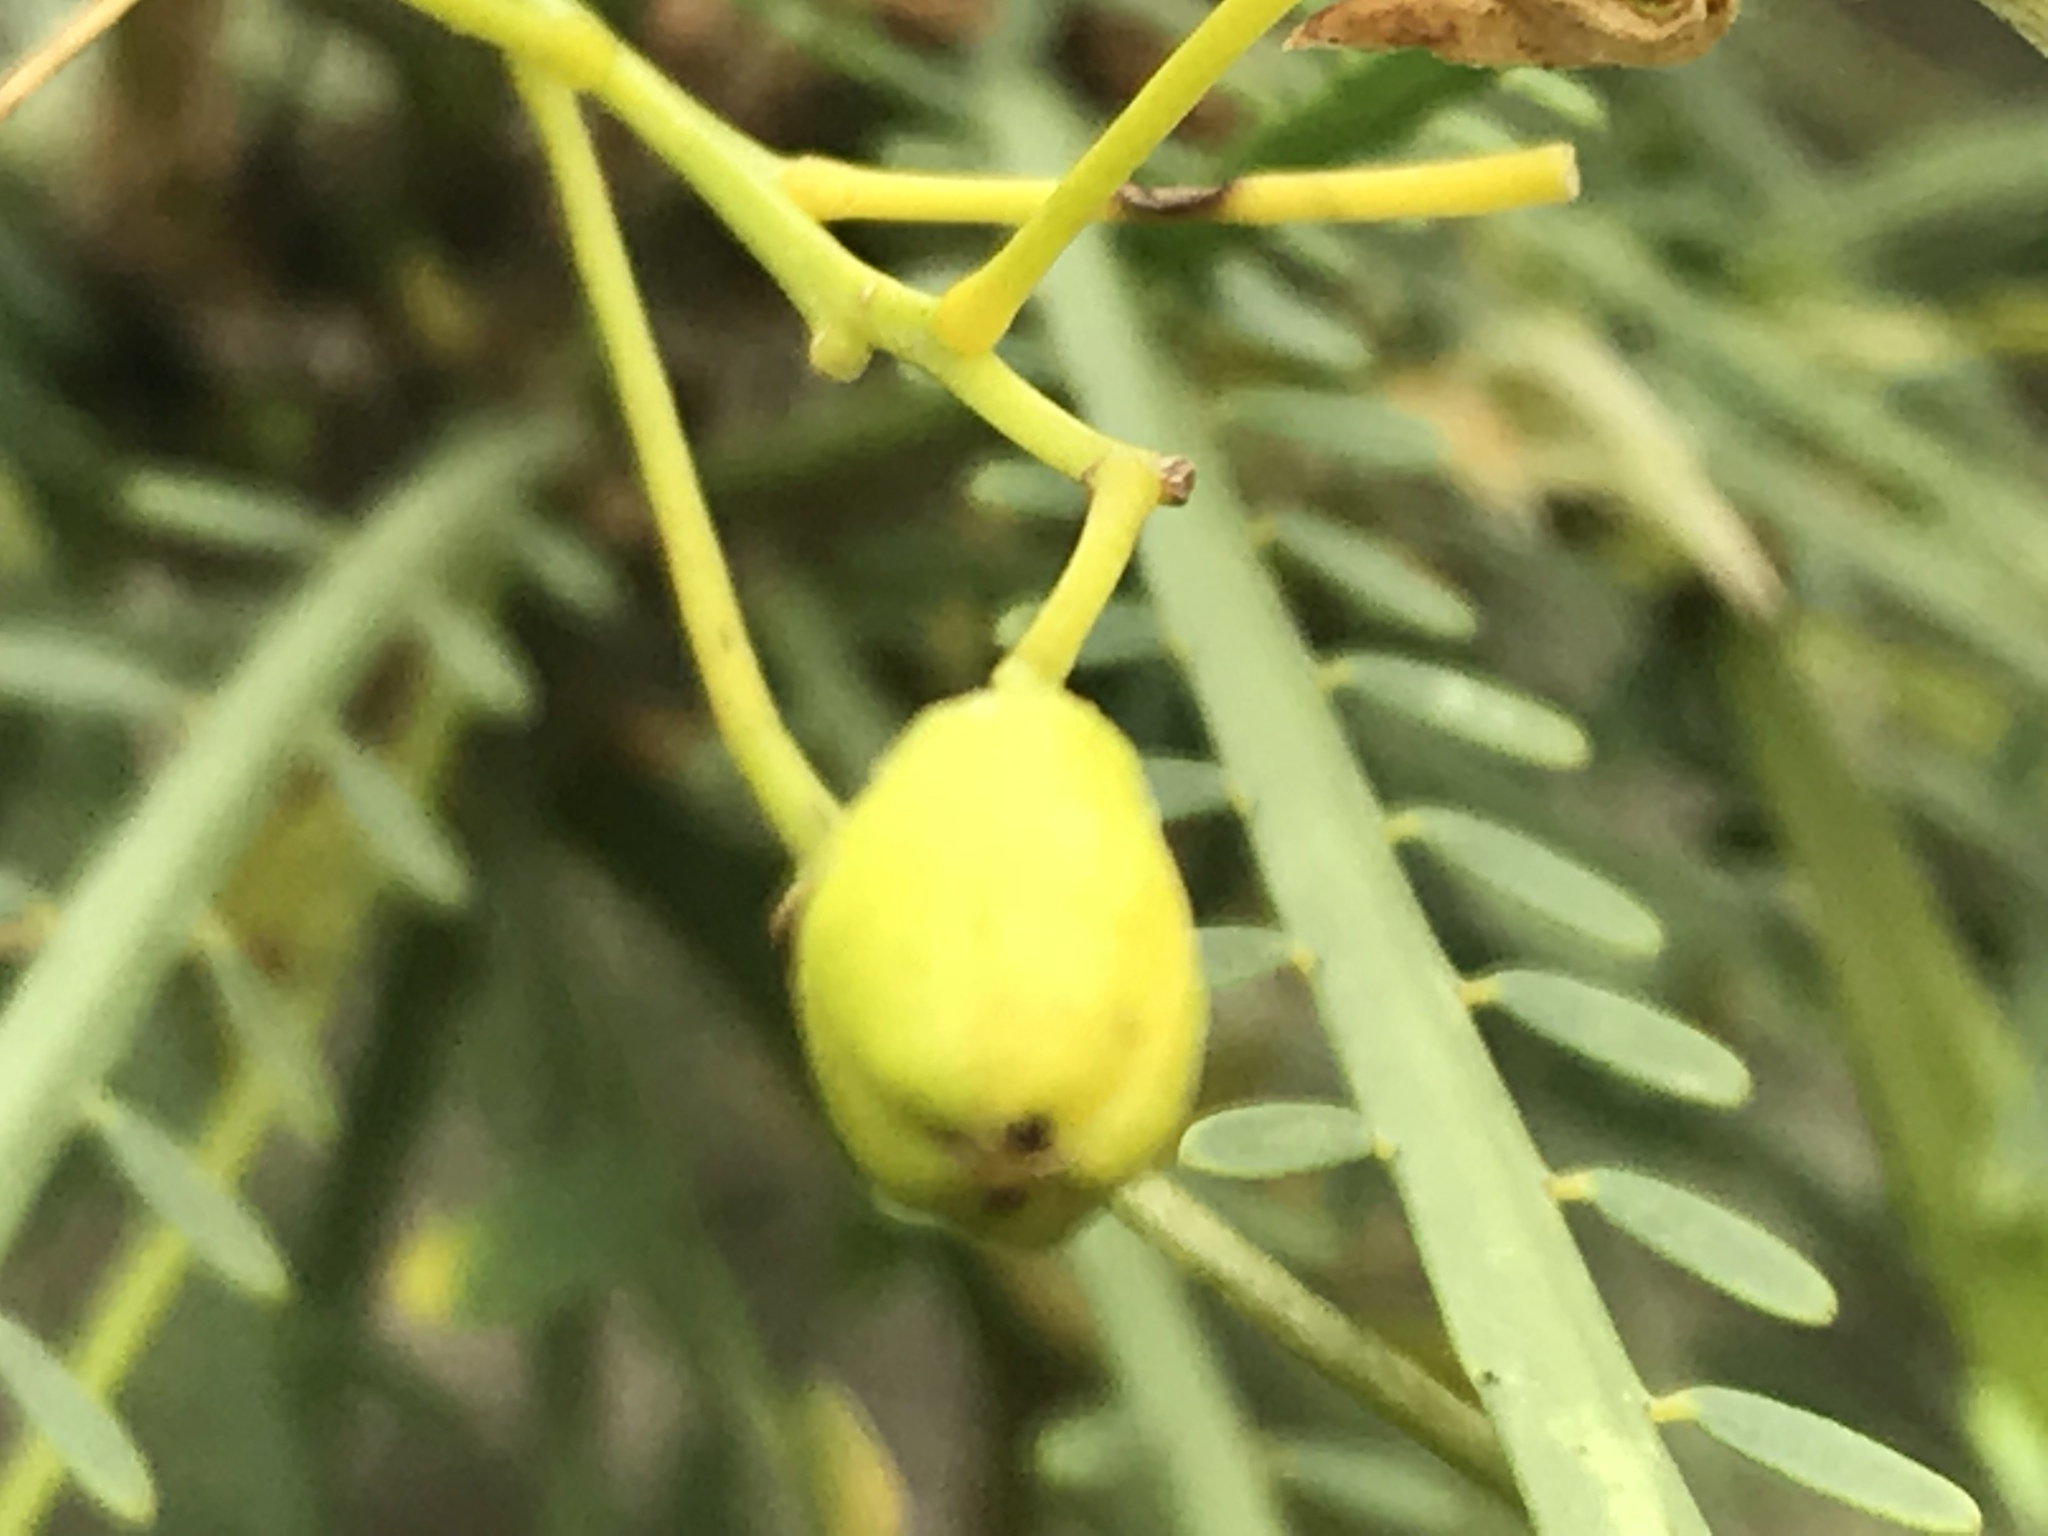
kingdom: Plantae
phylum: Tracheophyta
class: Magnoliopsida
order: Fabales
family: Fabaceae
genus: Parkinsonia
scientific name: Parkinsonia aculeata
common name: Jerusalem thorn
